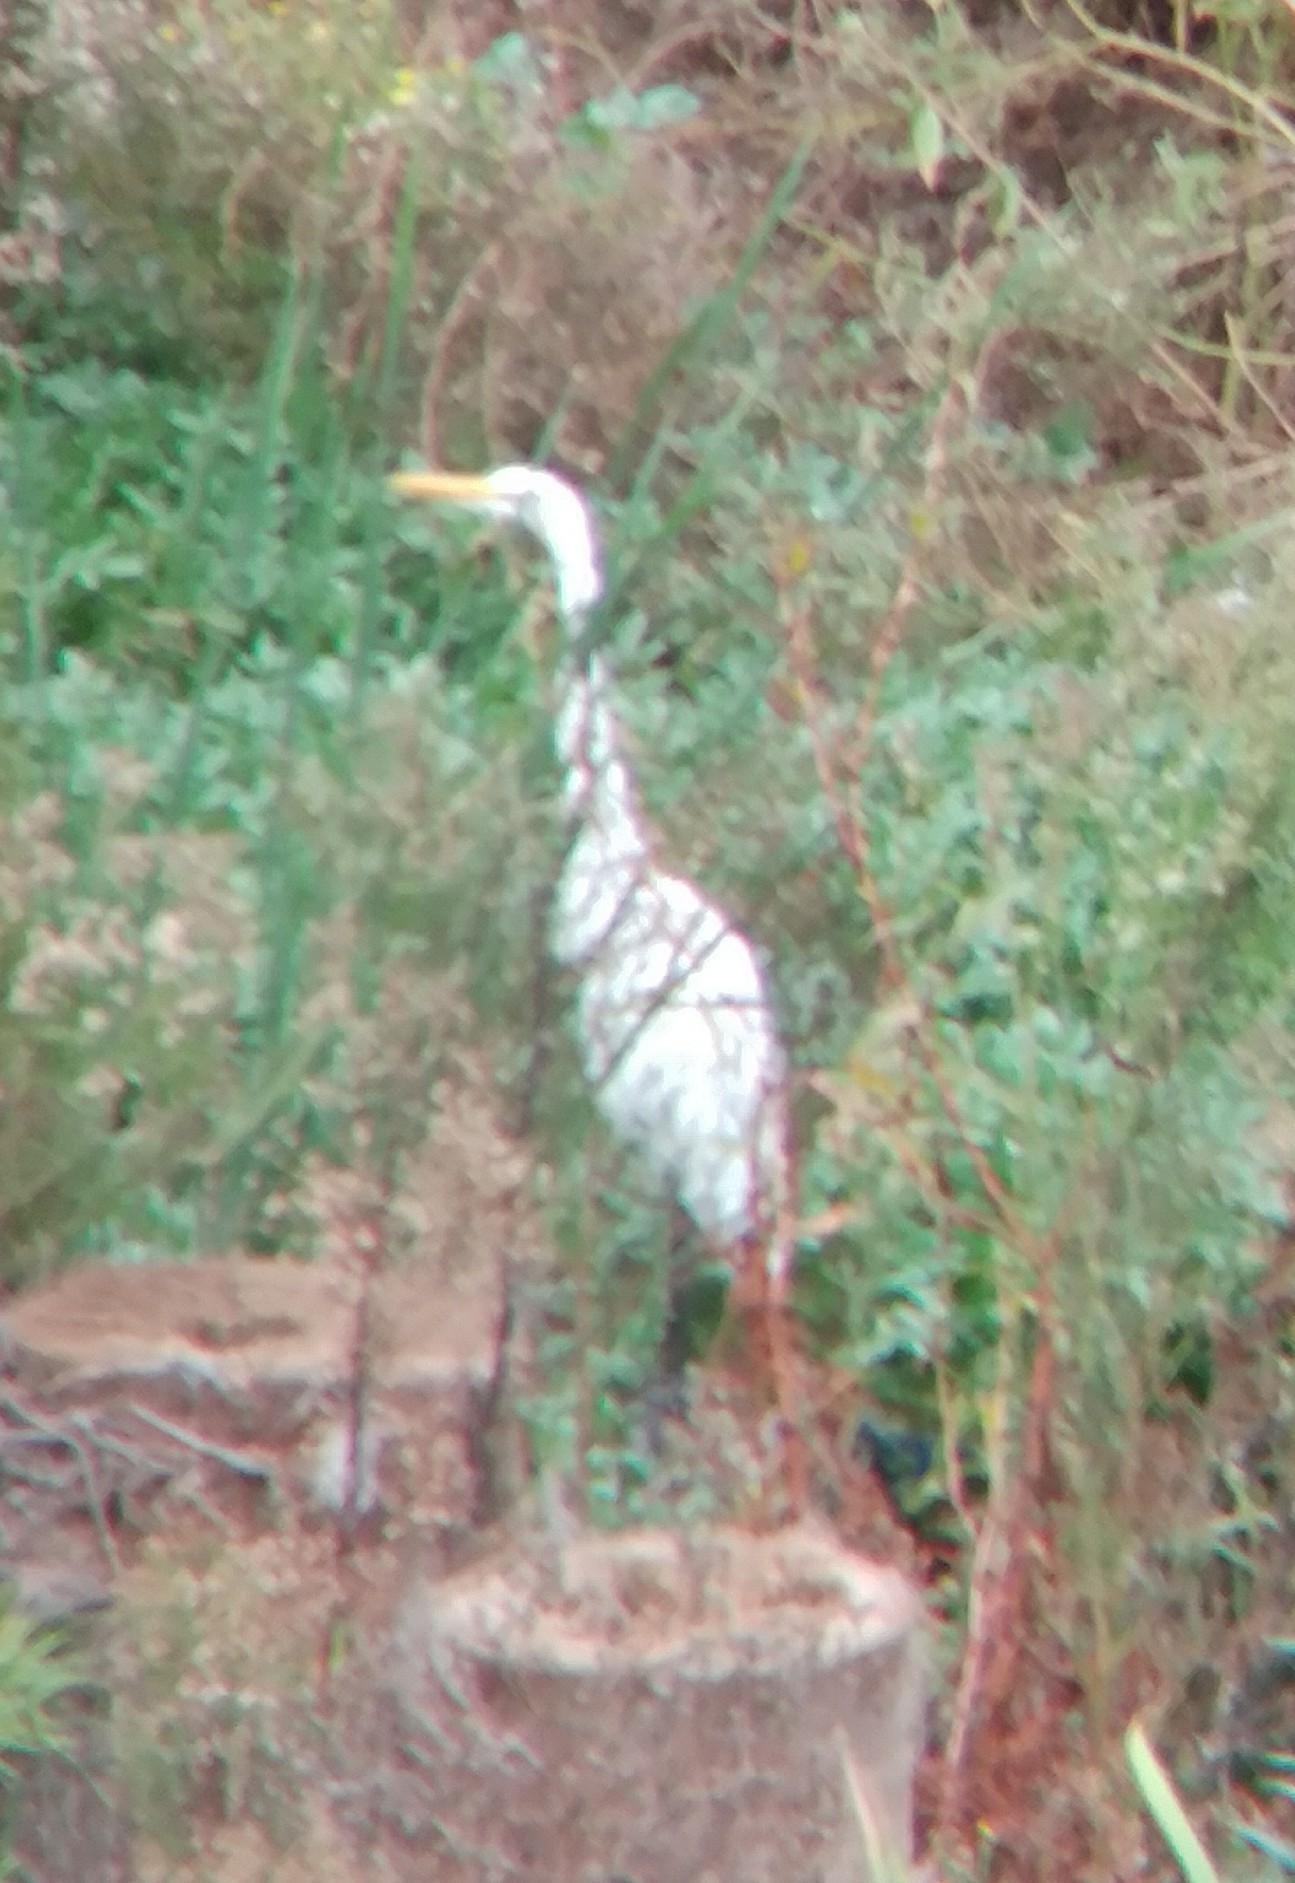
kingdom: Animalia
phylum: Chordata
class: Aves
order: Pelecaniformes
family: Ardeidae
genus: Ardea
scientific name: Ardea alba
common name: Great egret
